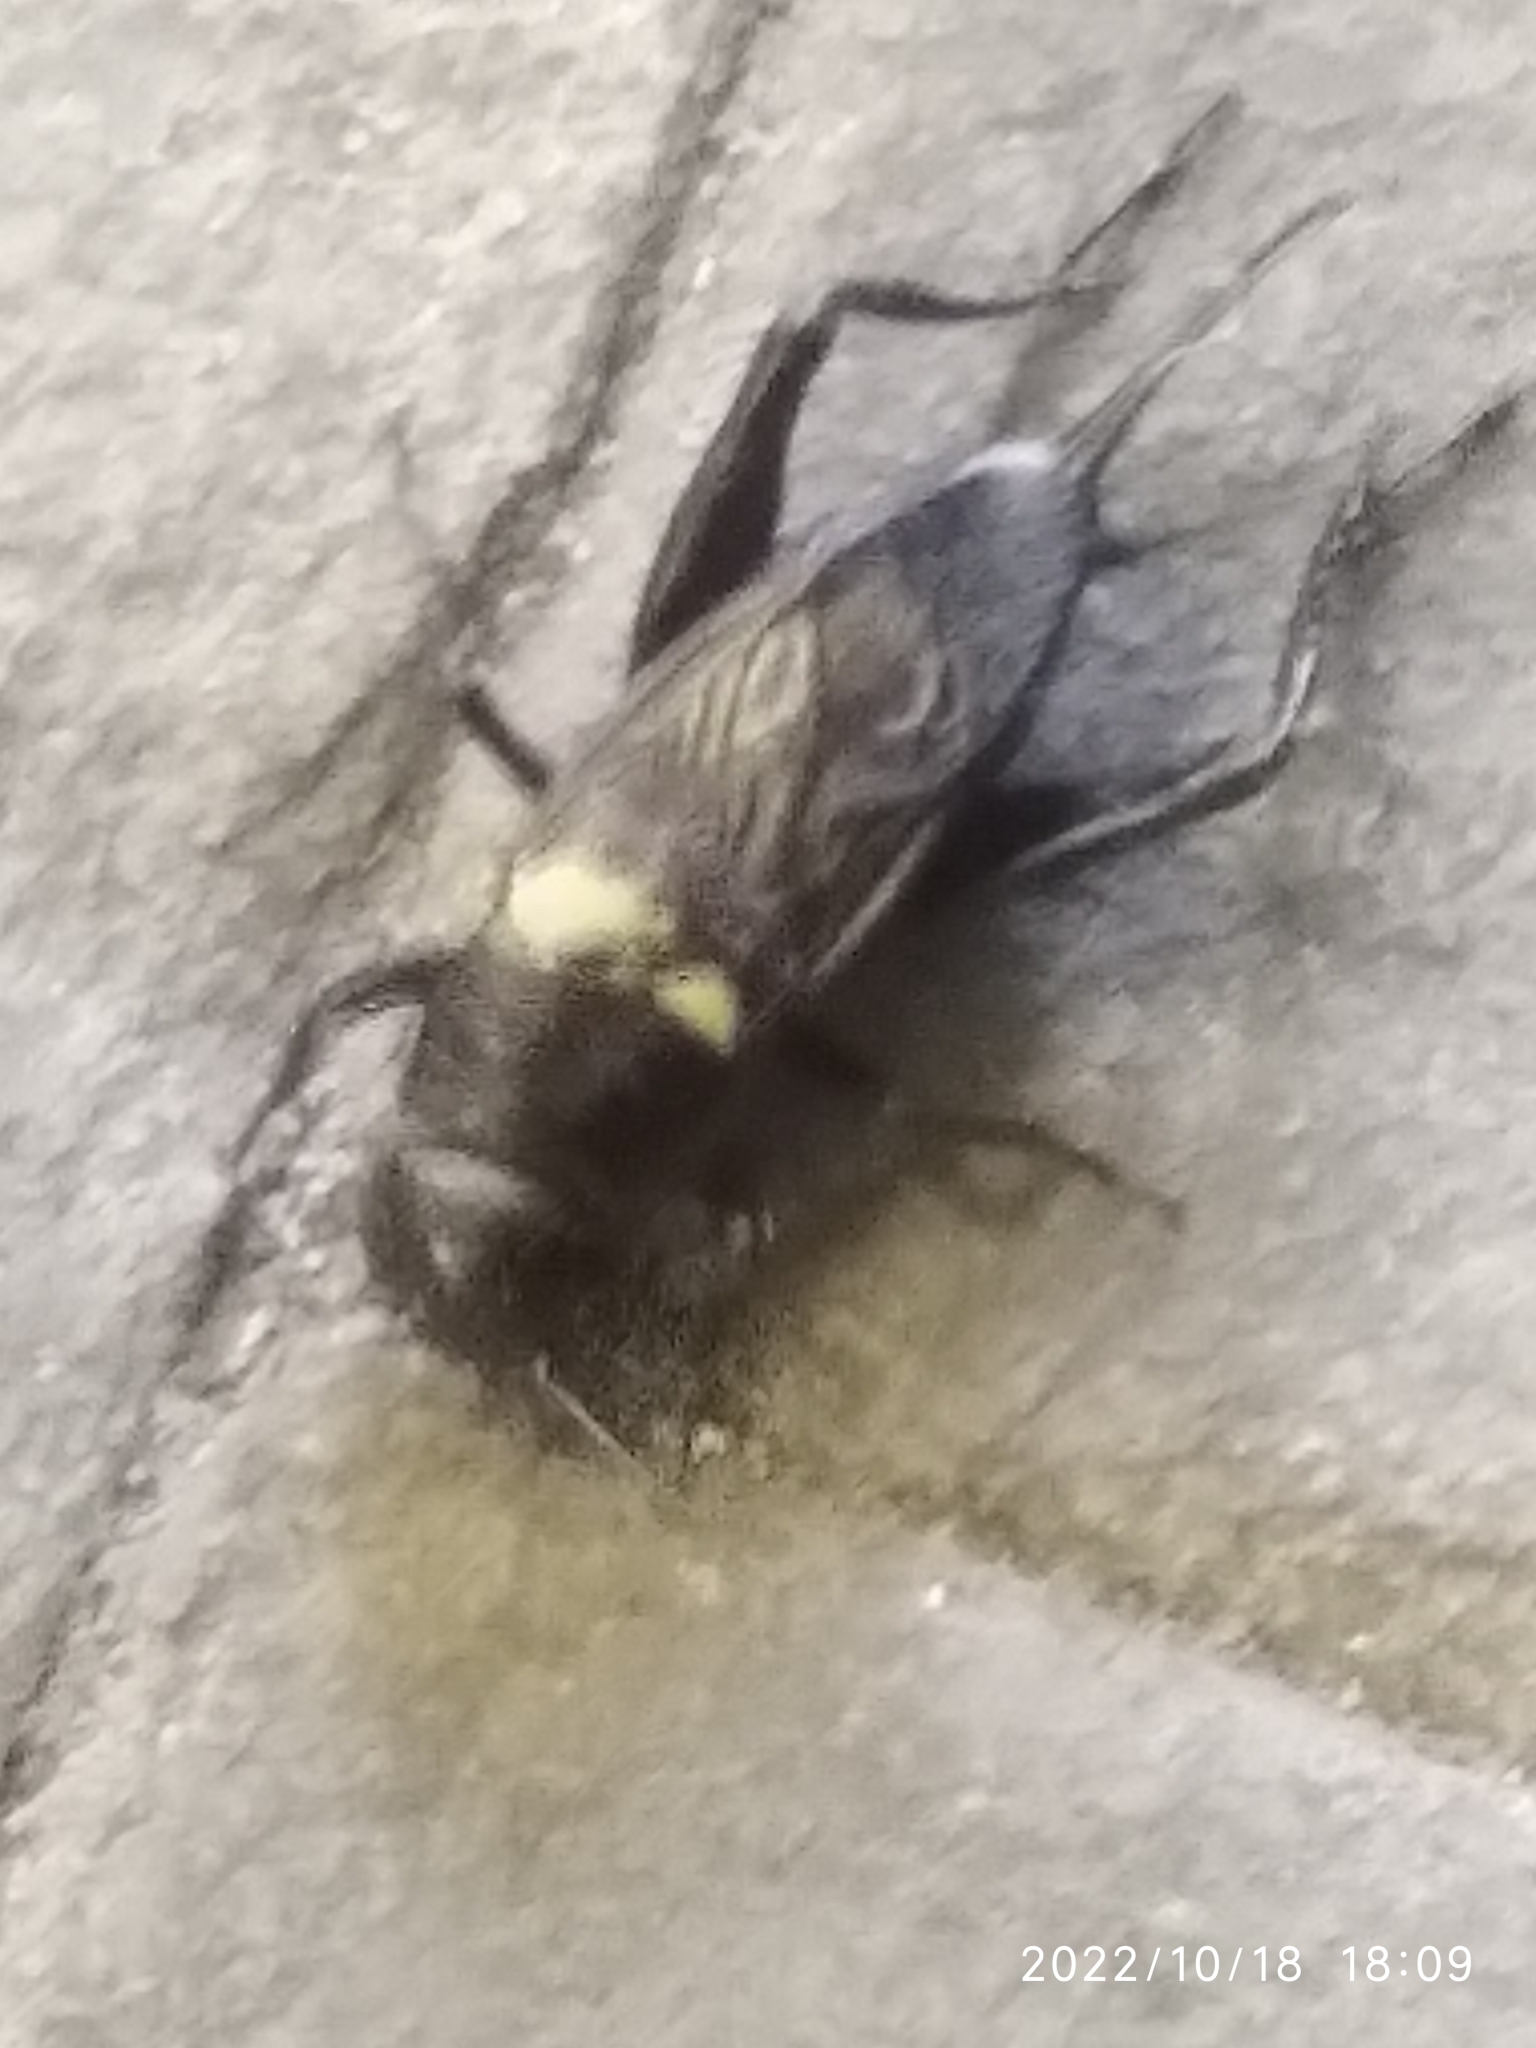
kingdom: Animalia
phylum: Arthropoda
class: Insecta
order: Orthoptera
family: Gryllidae
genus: Gryllus
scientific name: Gryllus bimaculatus
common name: Two-spotted cricket
